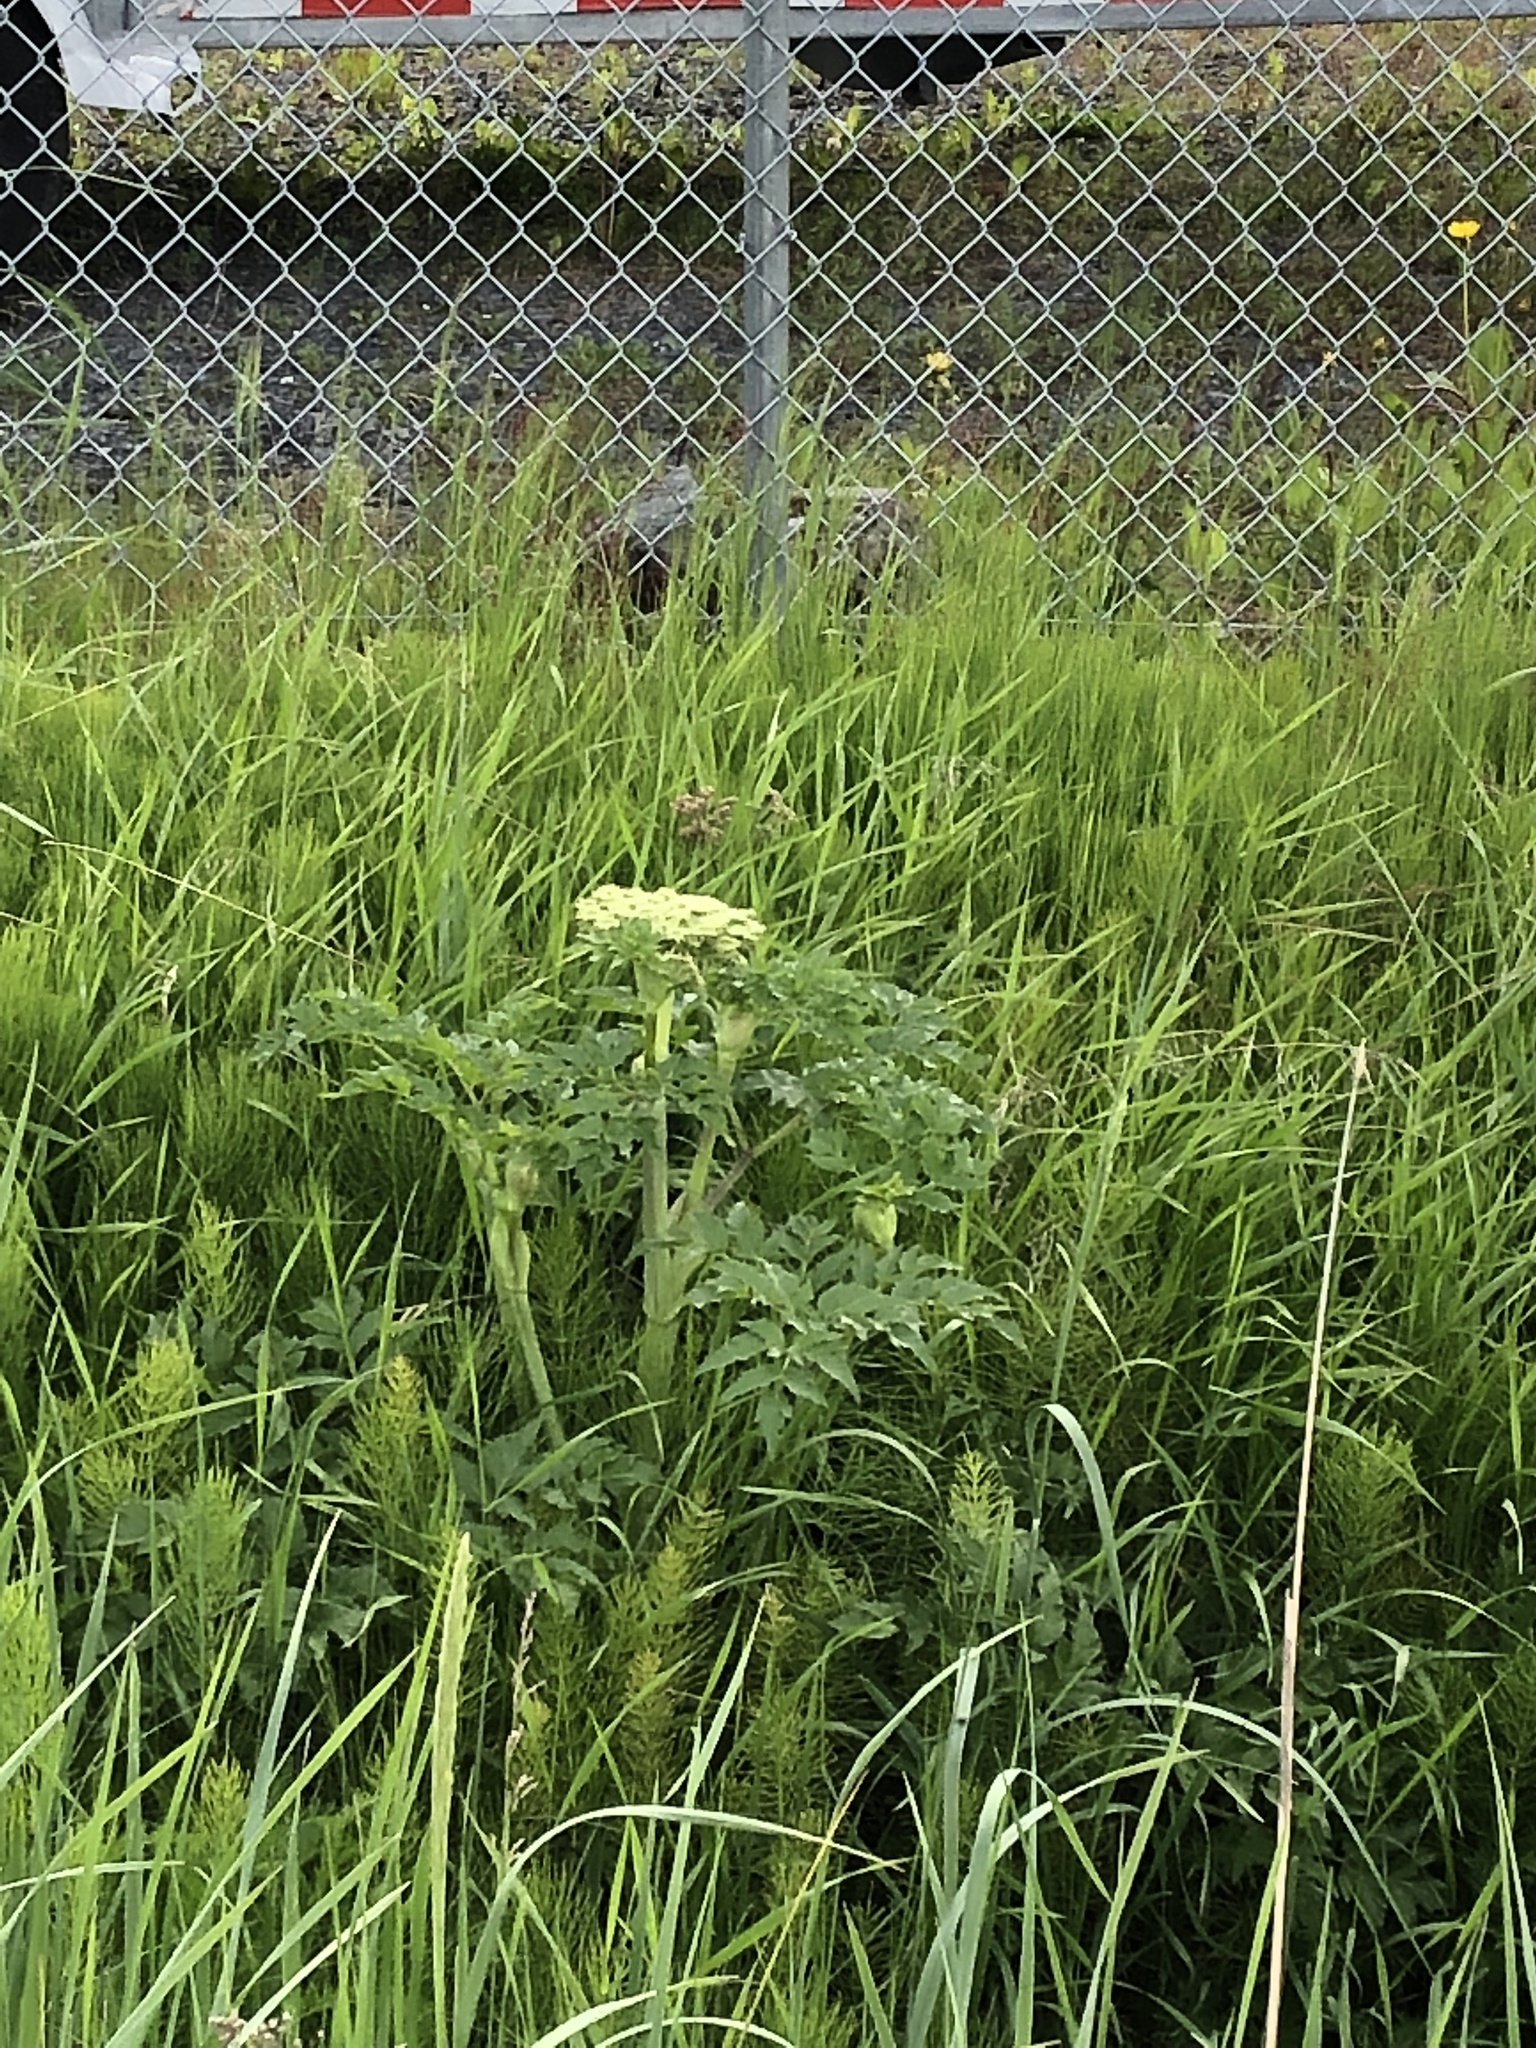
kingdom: Plantae
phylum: Tracheophyta
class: Magnoliopsida
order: Apiales
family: Apiaceae
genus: Heracleum
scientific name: Heracleum maximum
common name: American cow parsnip
